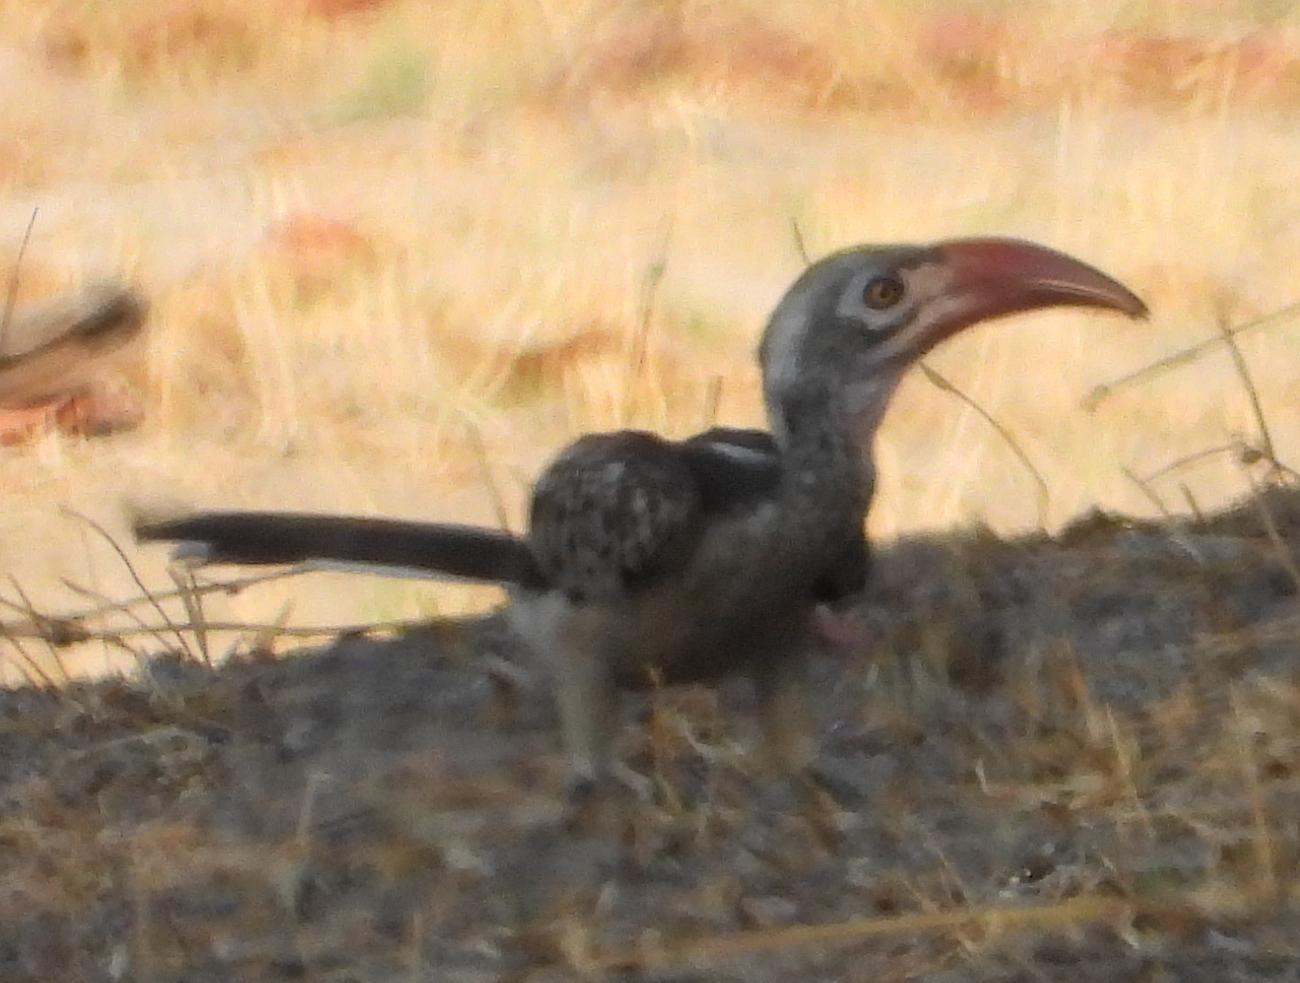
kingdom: Animalia
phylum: Chordata
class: Aves
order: Bucerotiformes
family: Bucerotidae
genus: Tockus
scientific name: Tockus rufirostris
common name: Southern red-billed hornbill
